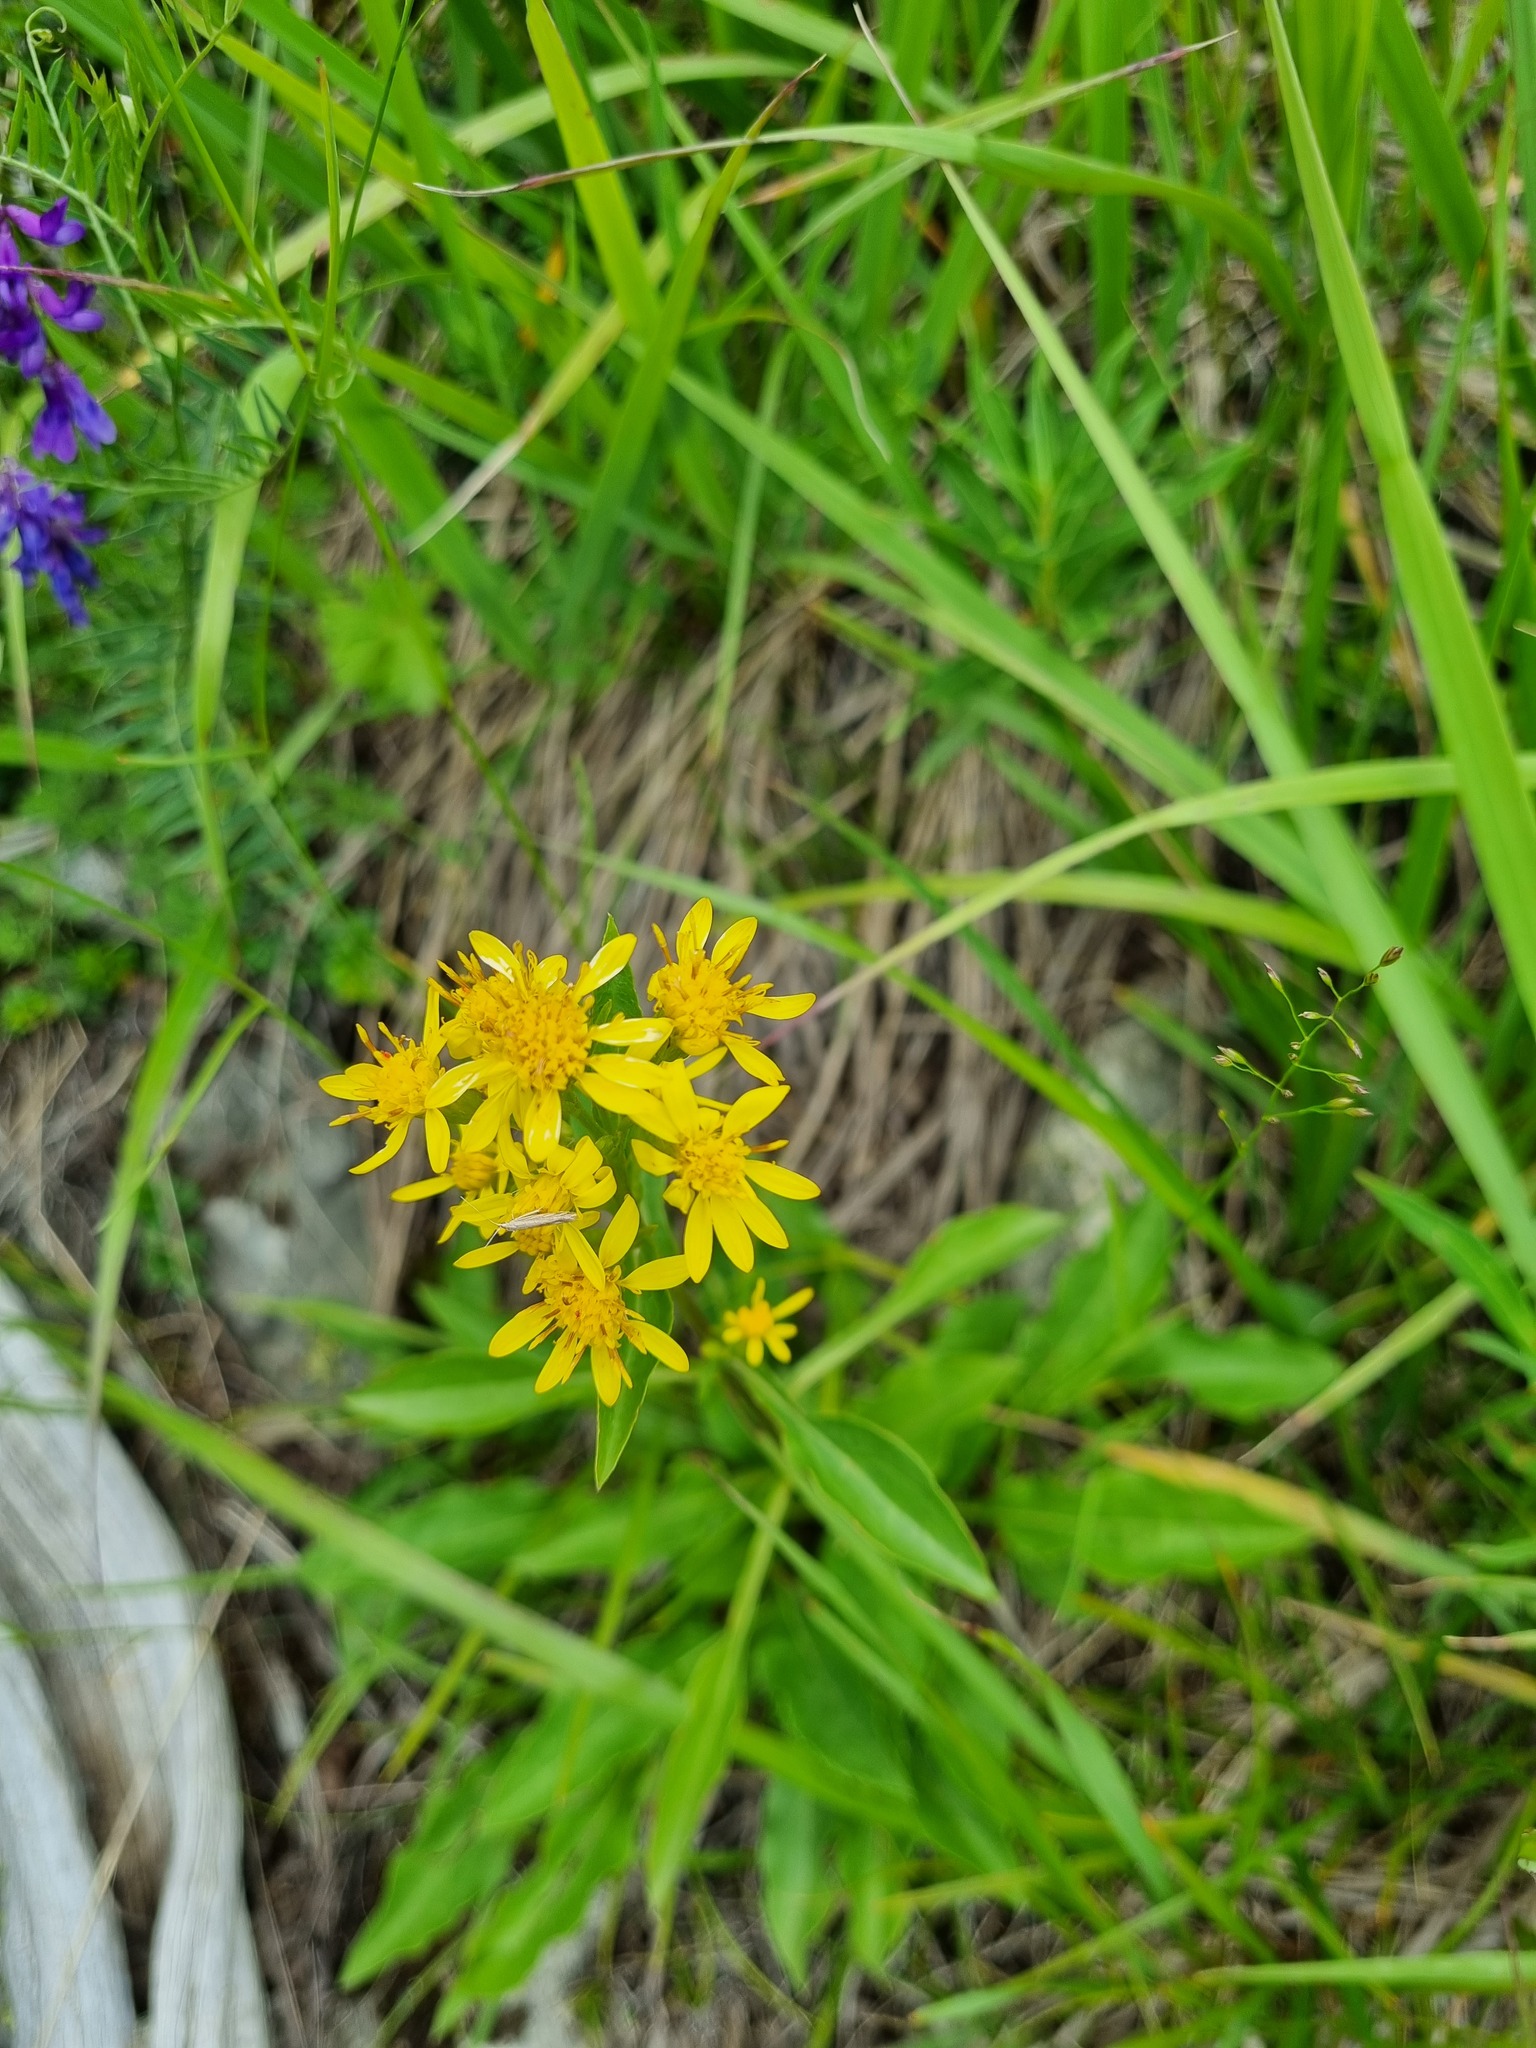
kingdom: Plantae
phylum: Tracheophyta
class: Magnoliopsida
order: Asterales
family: Asteraceae
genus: Solidago
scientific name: Solidago virgaurea
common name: Goldenrod
